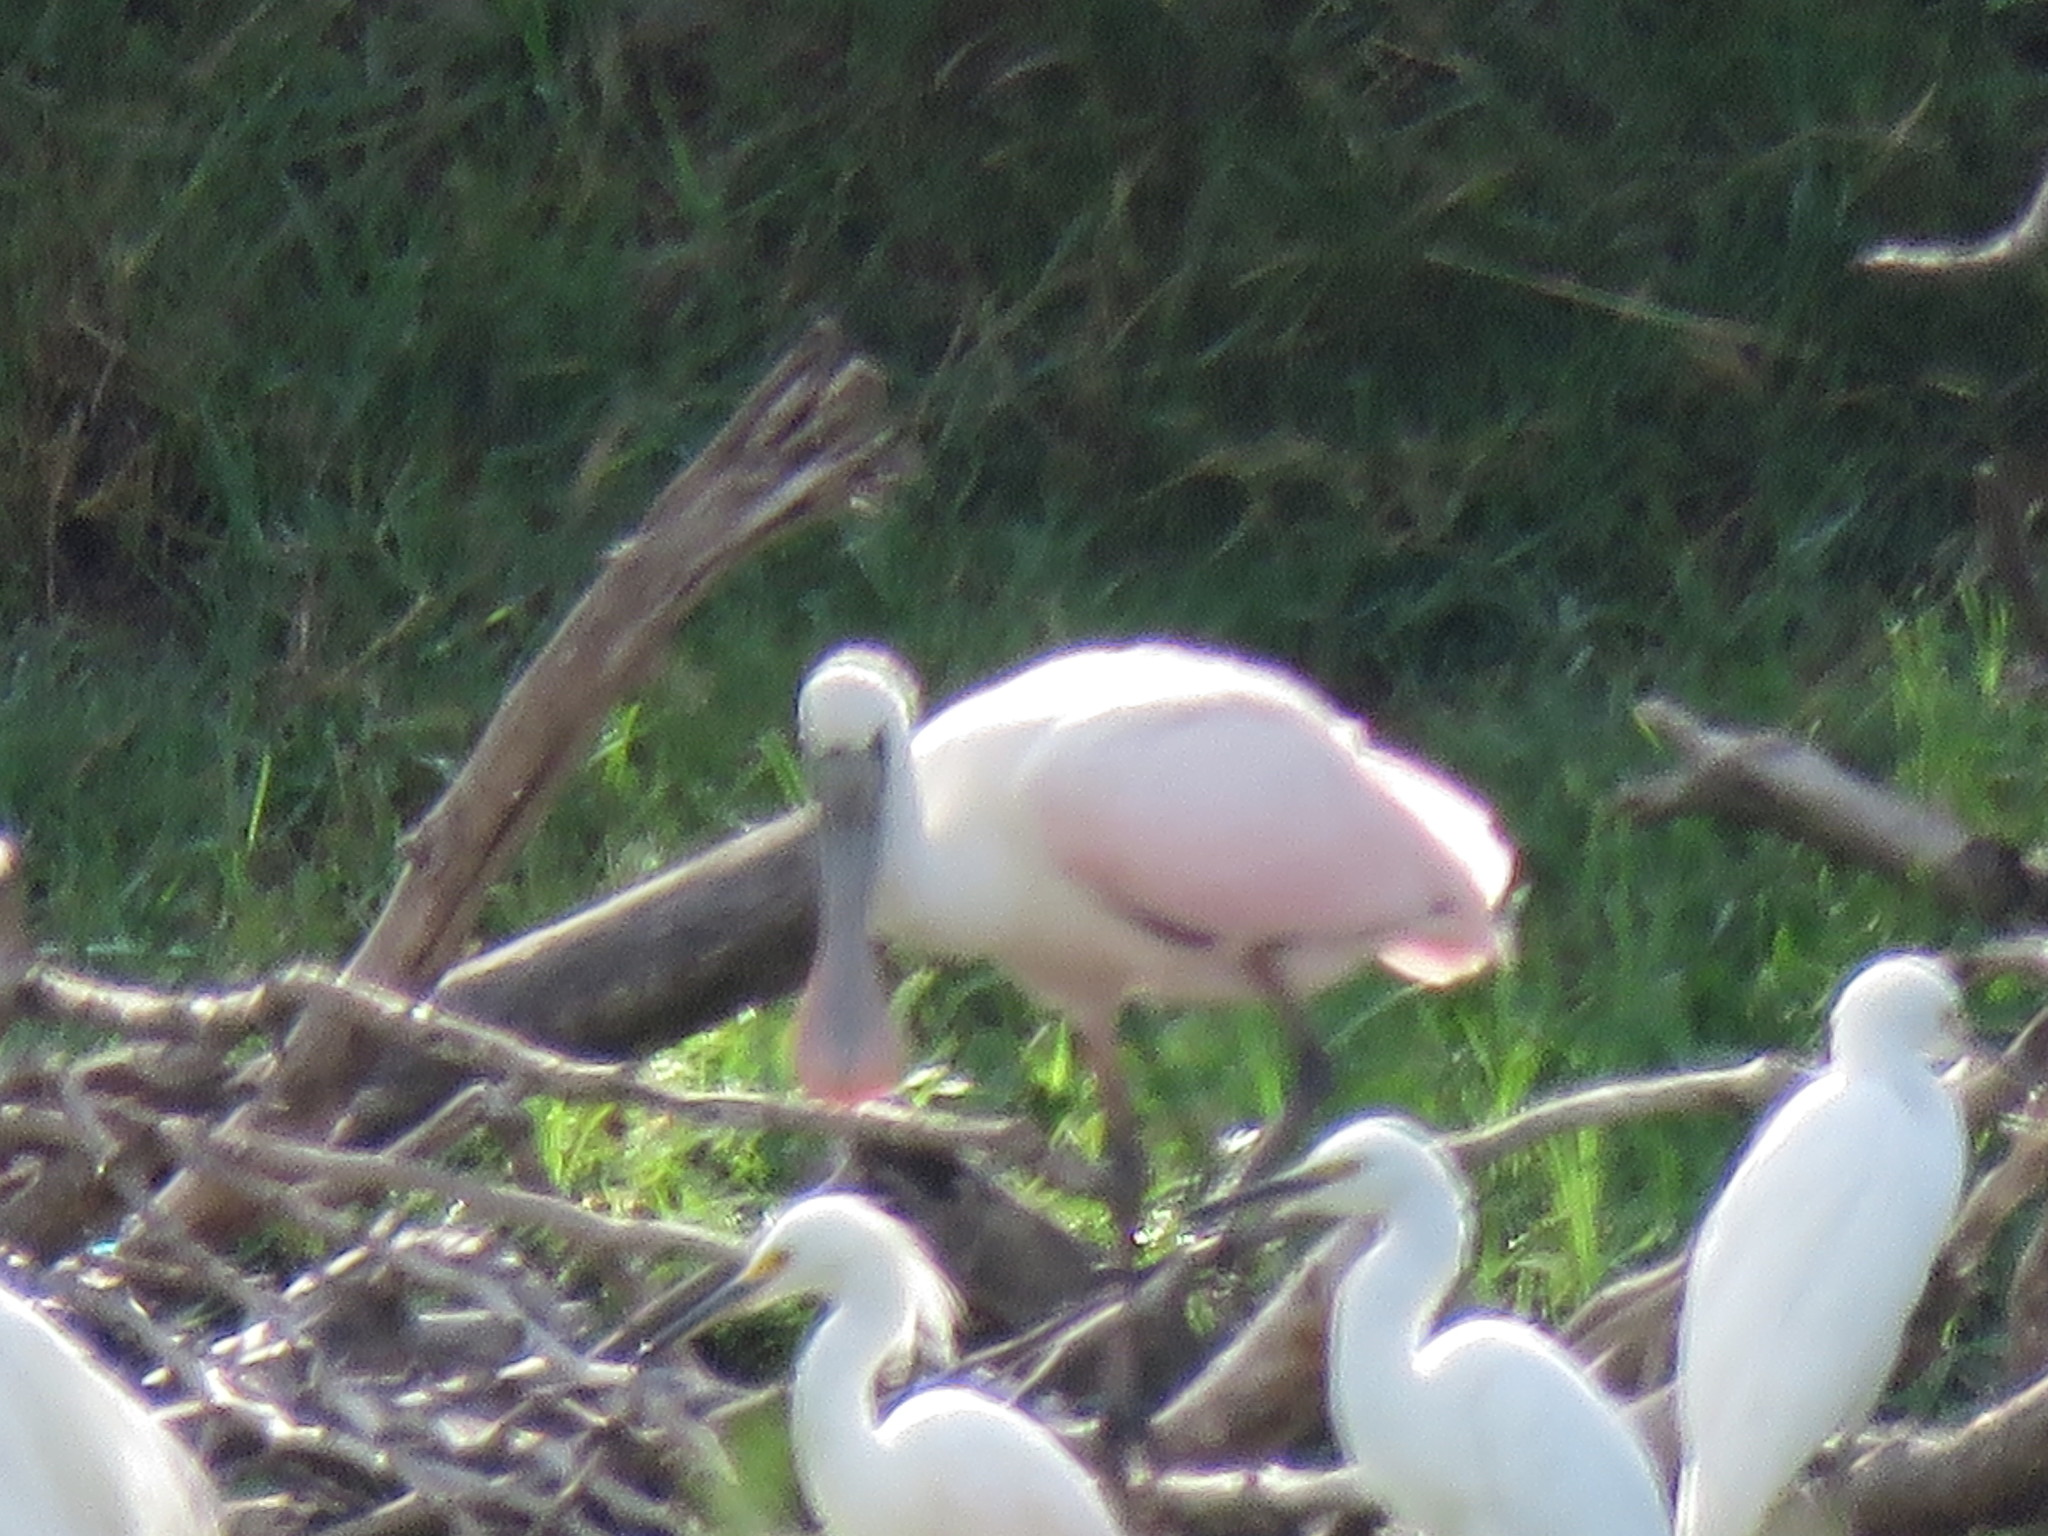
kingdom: Animalia
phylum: Chordata
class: Aves
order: Pelecaniformes
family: Threskiornithidae
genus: Platalea
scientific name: Platalea ajaja
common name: Roseate spoonbill
